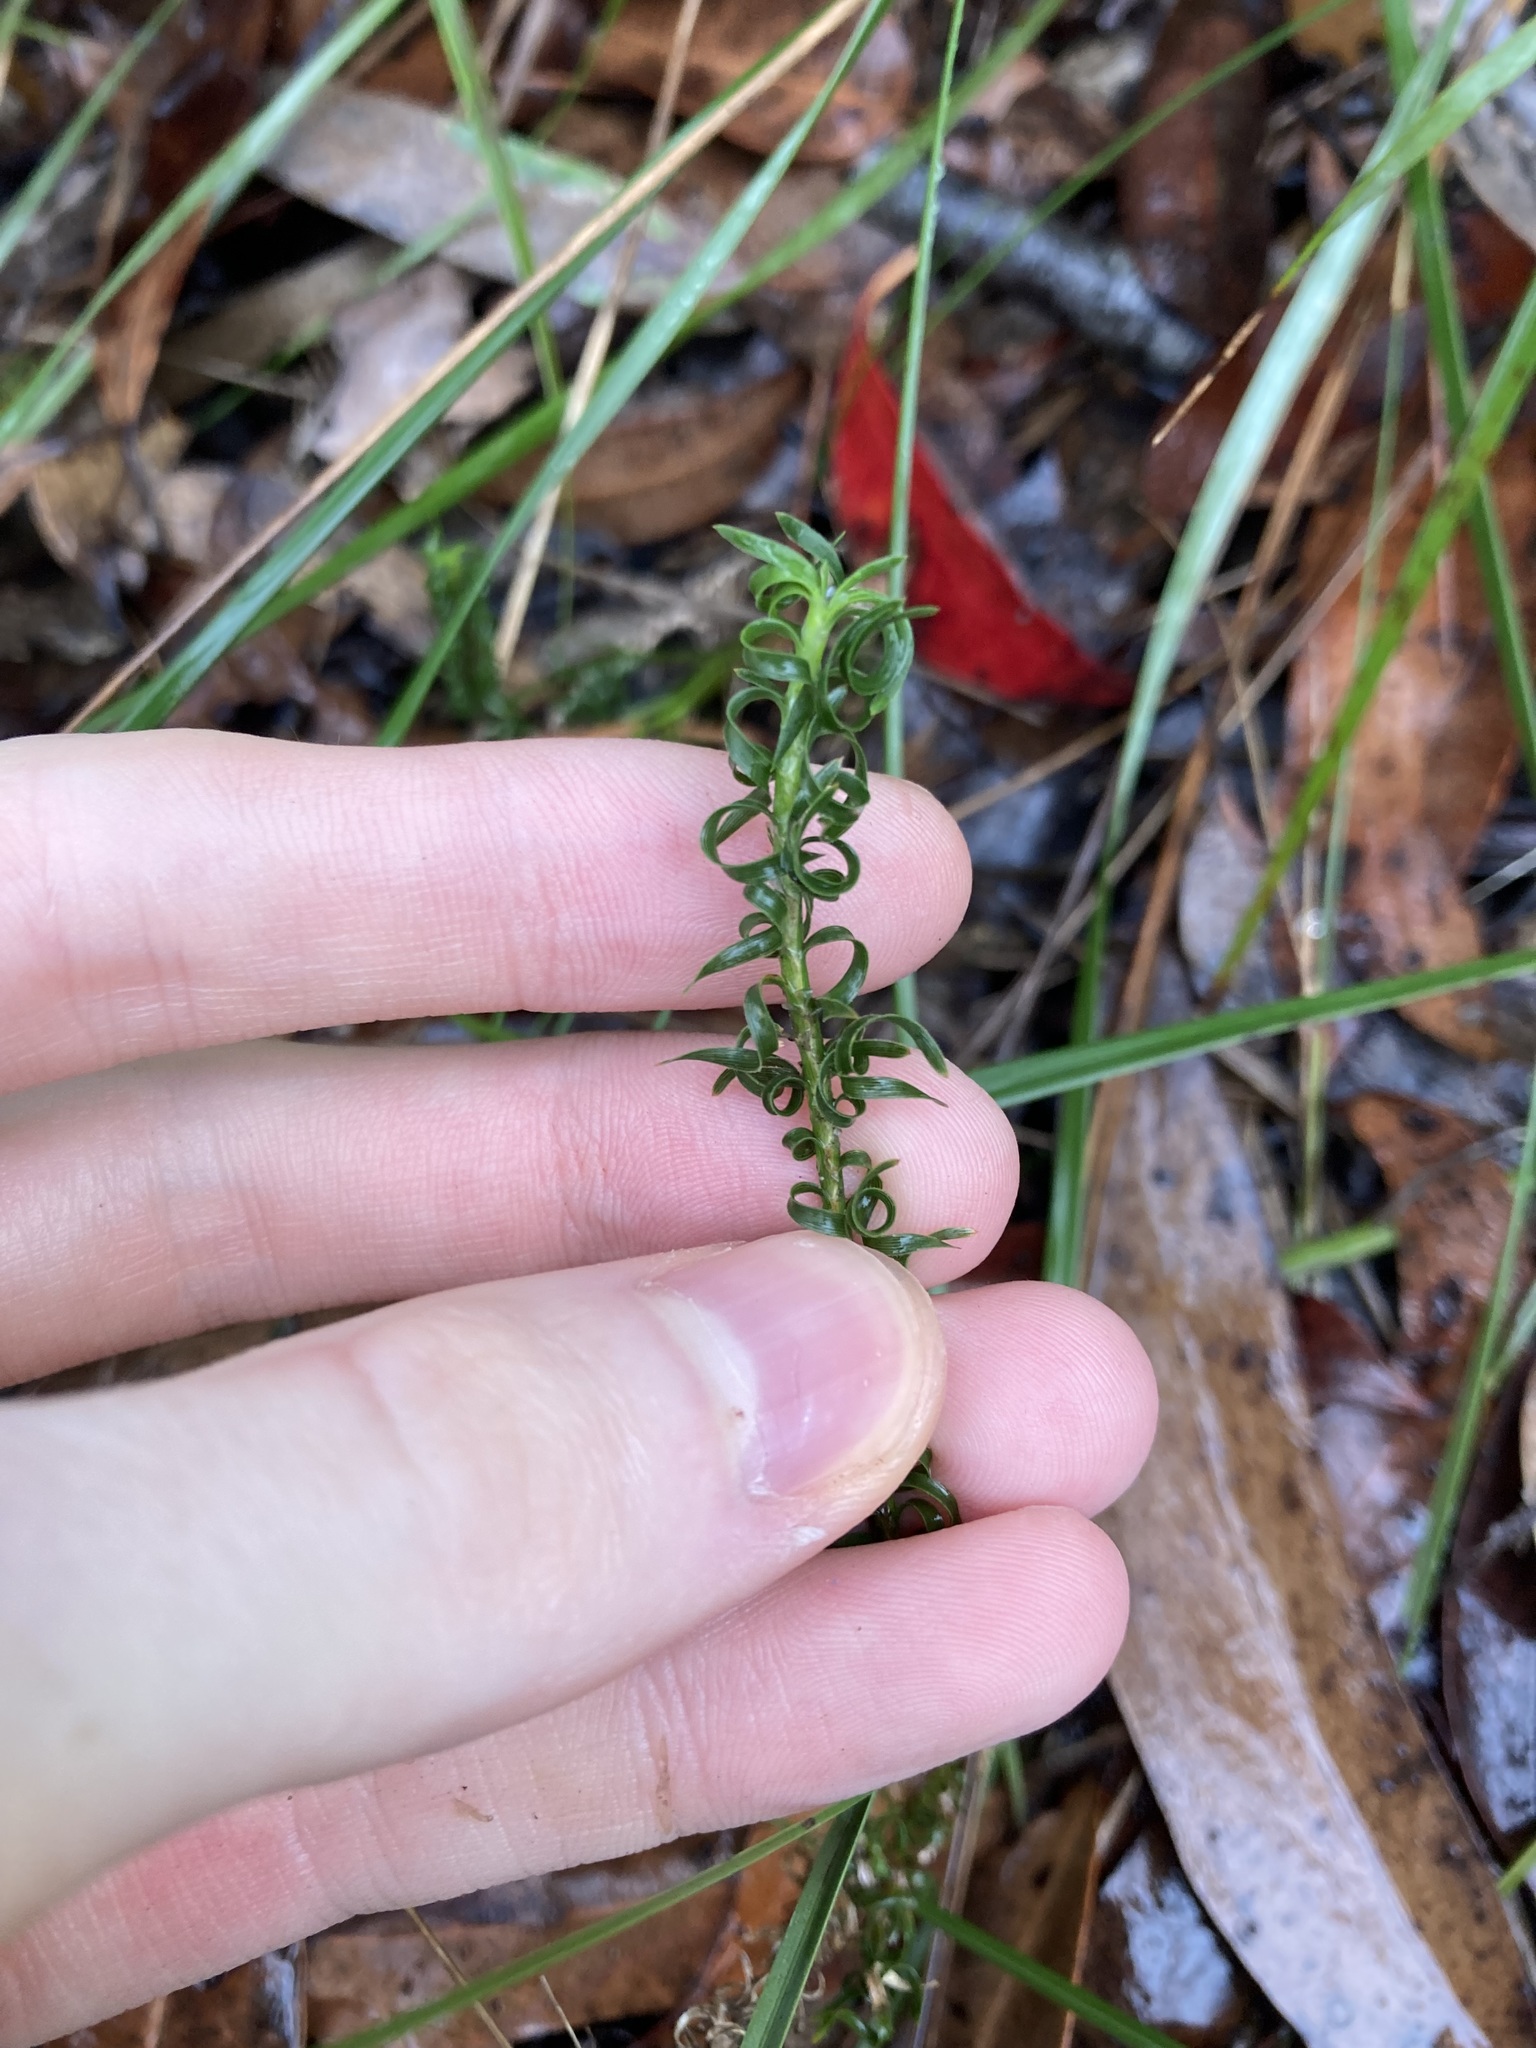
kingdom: Plantae
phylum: Tracheophyta
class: Liliopsida
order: Asparagales
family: Asparagaceae
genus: Lomandra
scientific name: Lomandra obliqua
